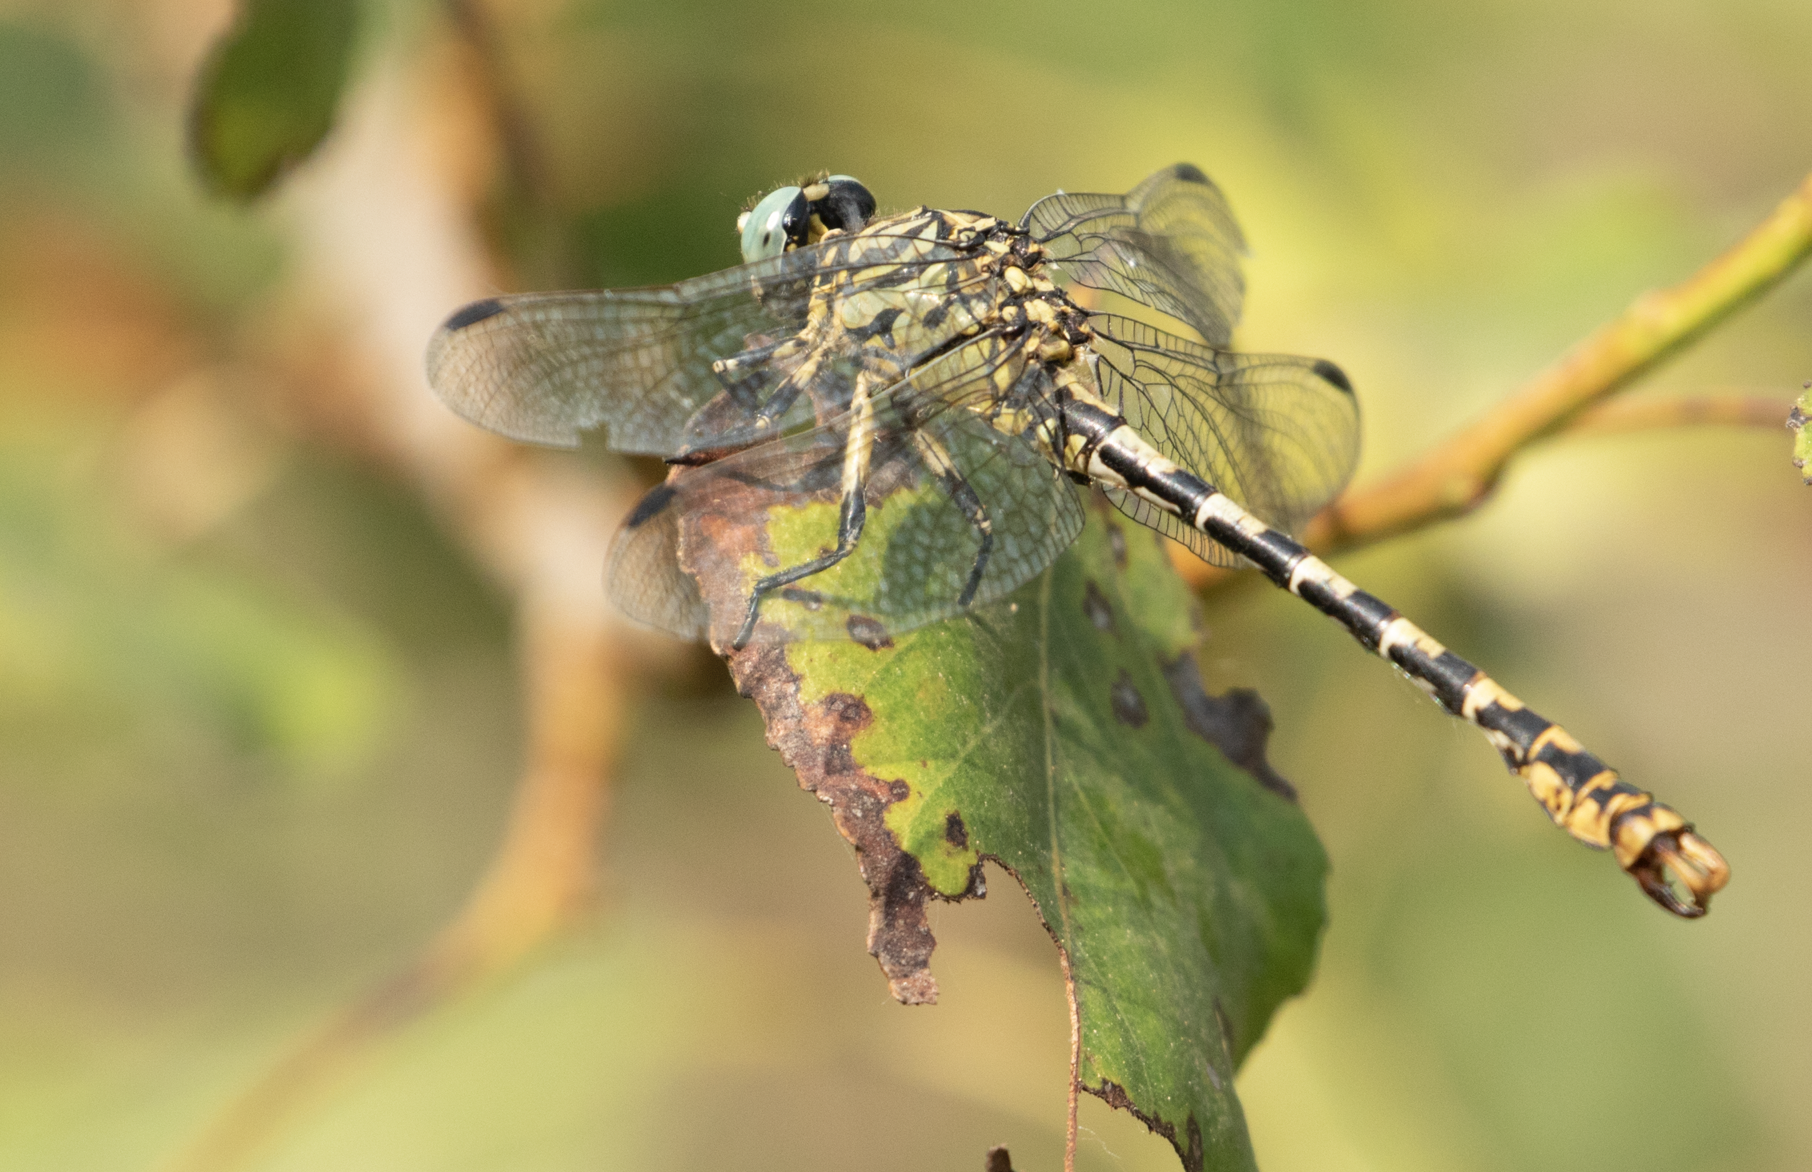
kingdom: Animalia
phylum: Arthropoda
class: Insecta
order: Odonata
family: Gomphidae
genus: Onychogomphus
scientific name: Onychogomphus forcipatus
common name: Small pincertail
